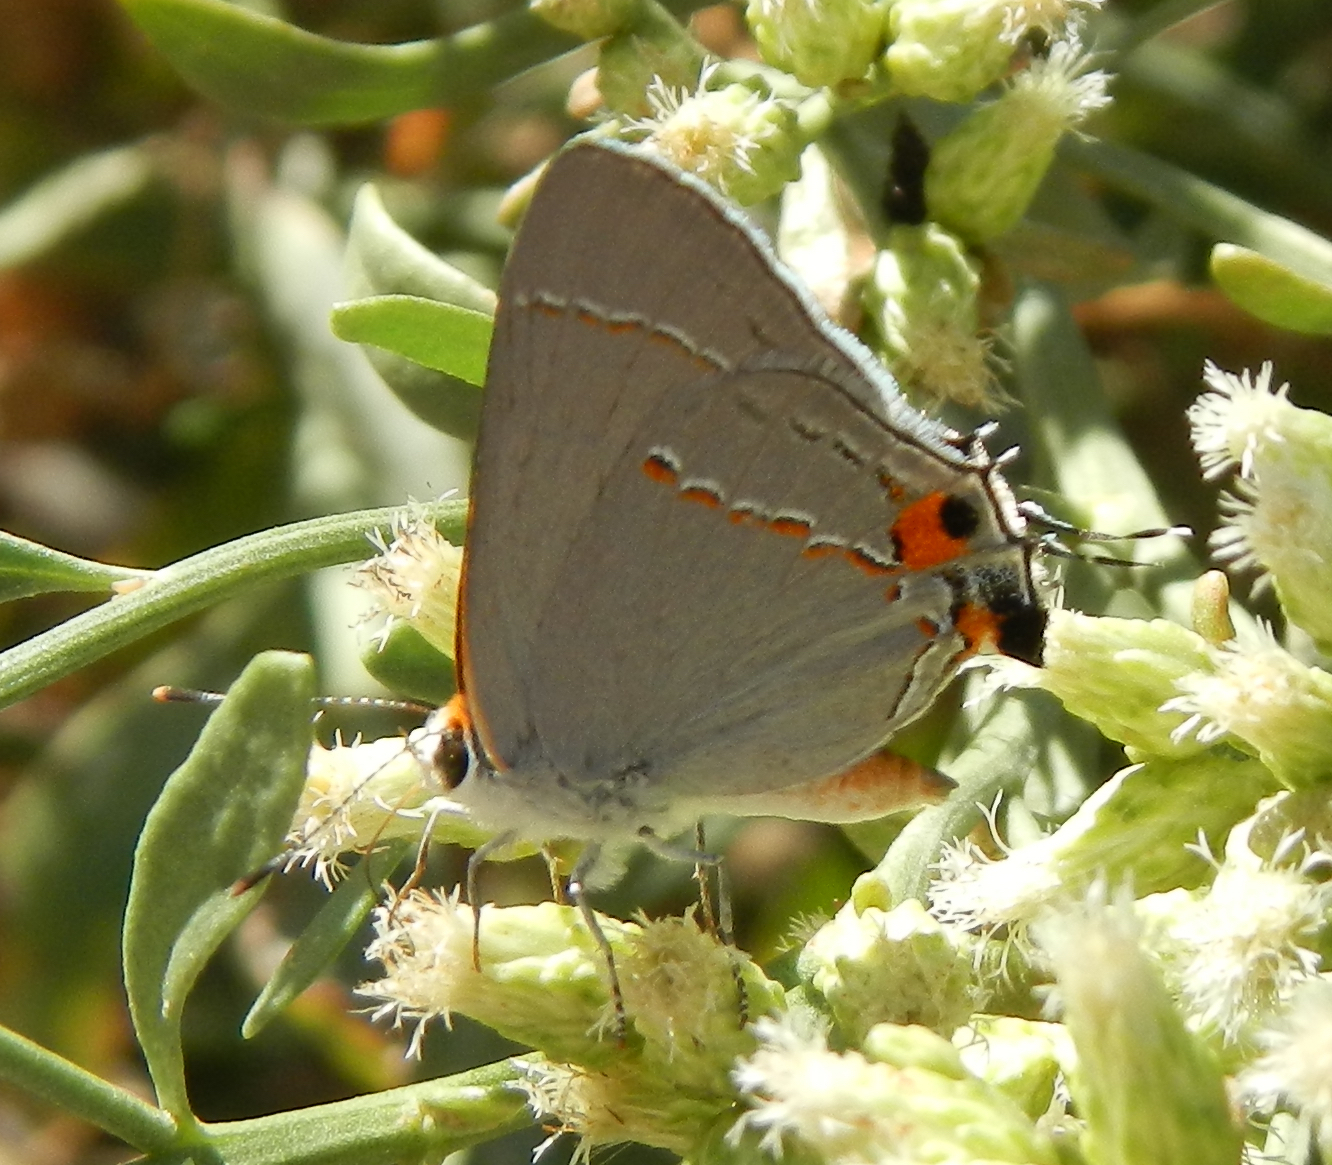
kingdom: Animalia
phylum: Arthropoda
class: Insecta
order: Lepidoptera
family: Lycaenidae
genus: Strymon
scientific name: Strymon melinus
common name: Gray hairstreak
